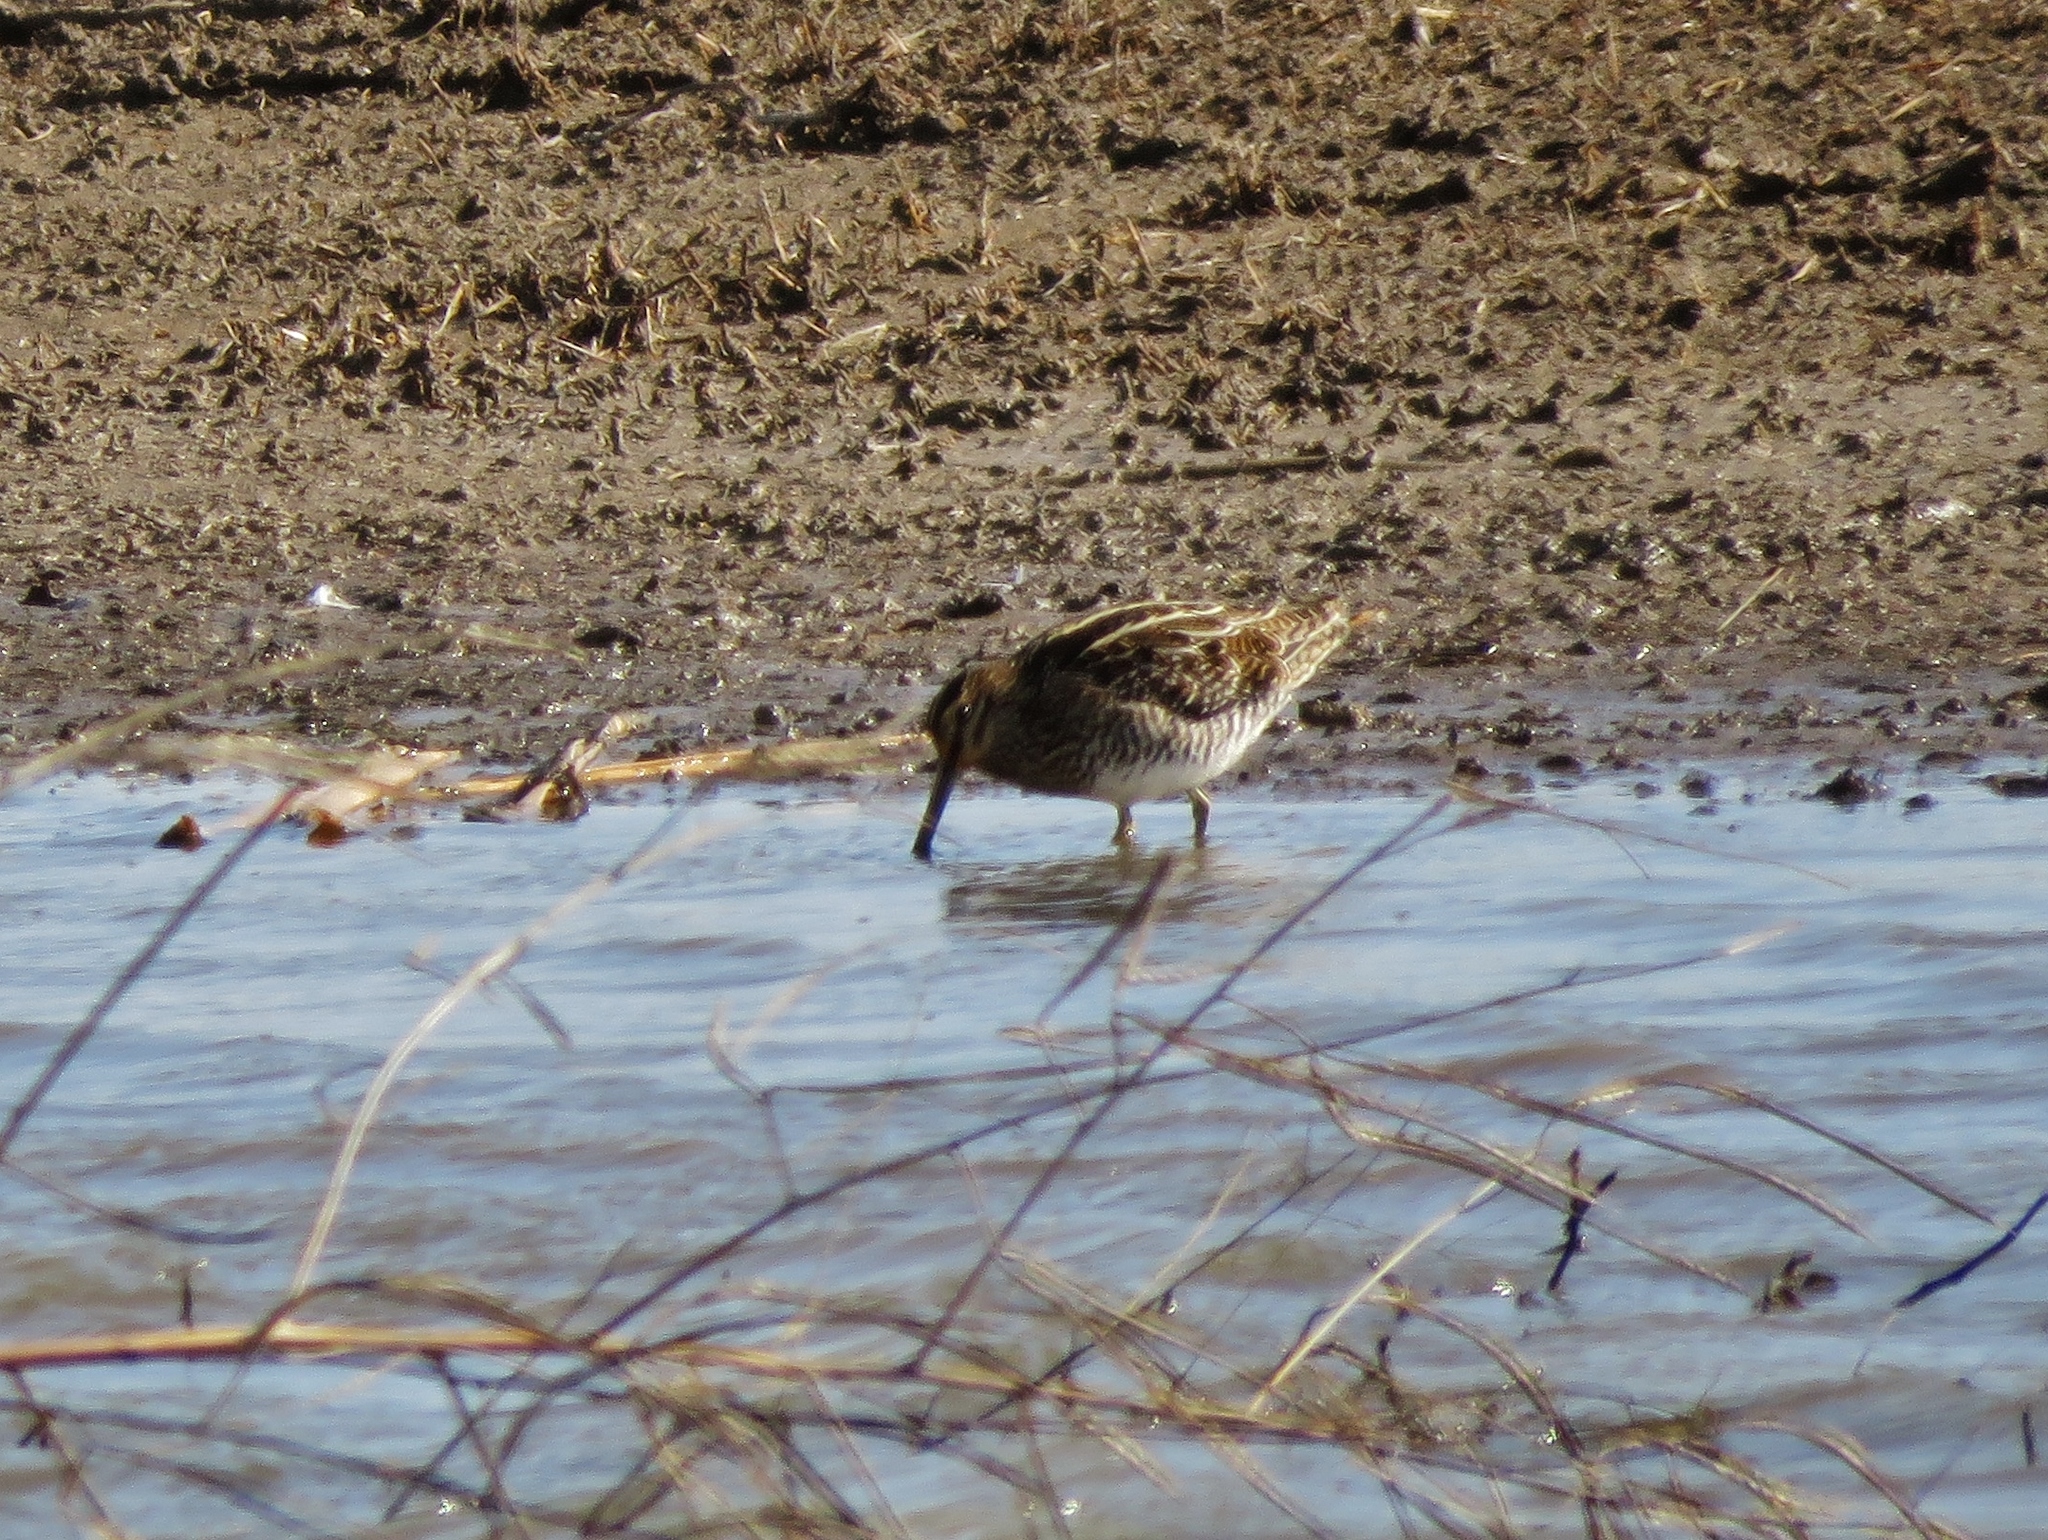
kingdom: Animalia
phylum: Chordata
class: Aves
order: Charadriiformes
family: Scolopacidae
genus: Gallinago
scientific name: Gallinago delicata
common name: Wilson's snipe
